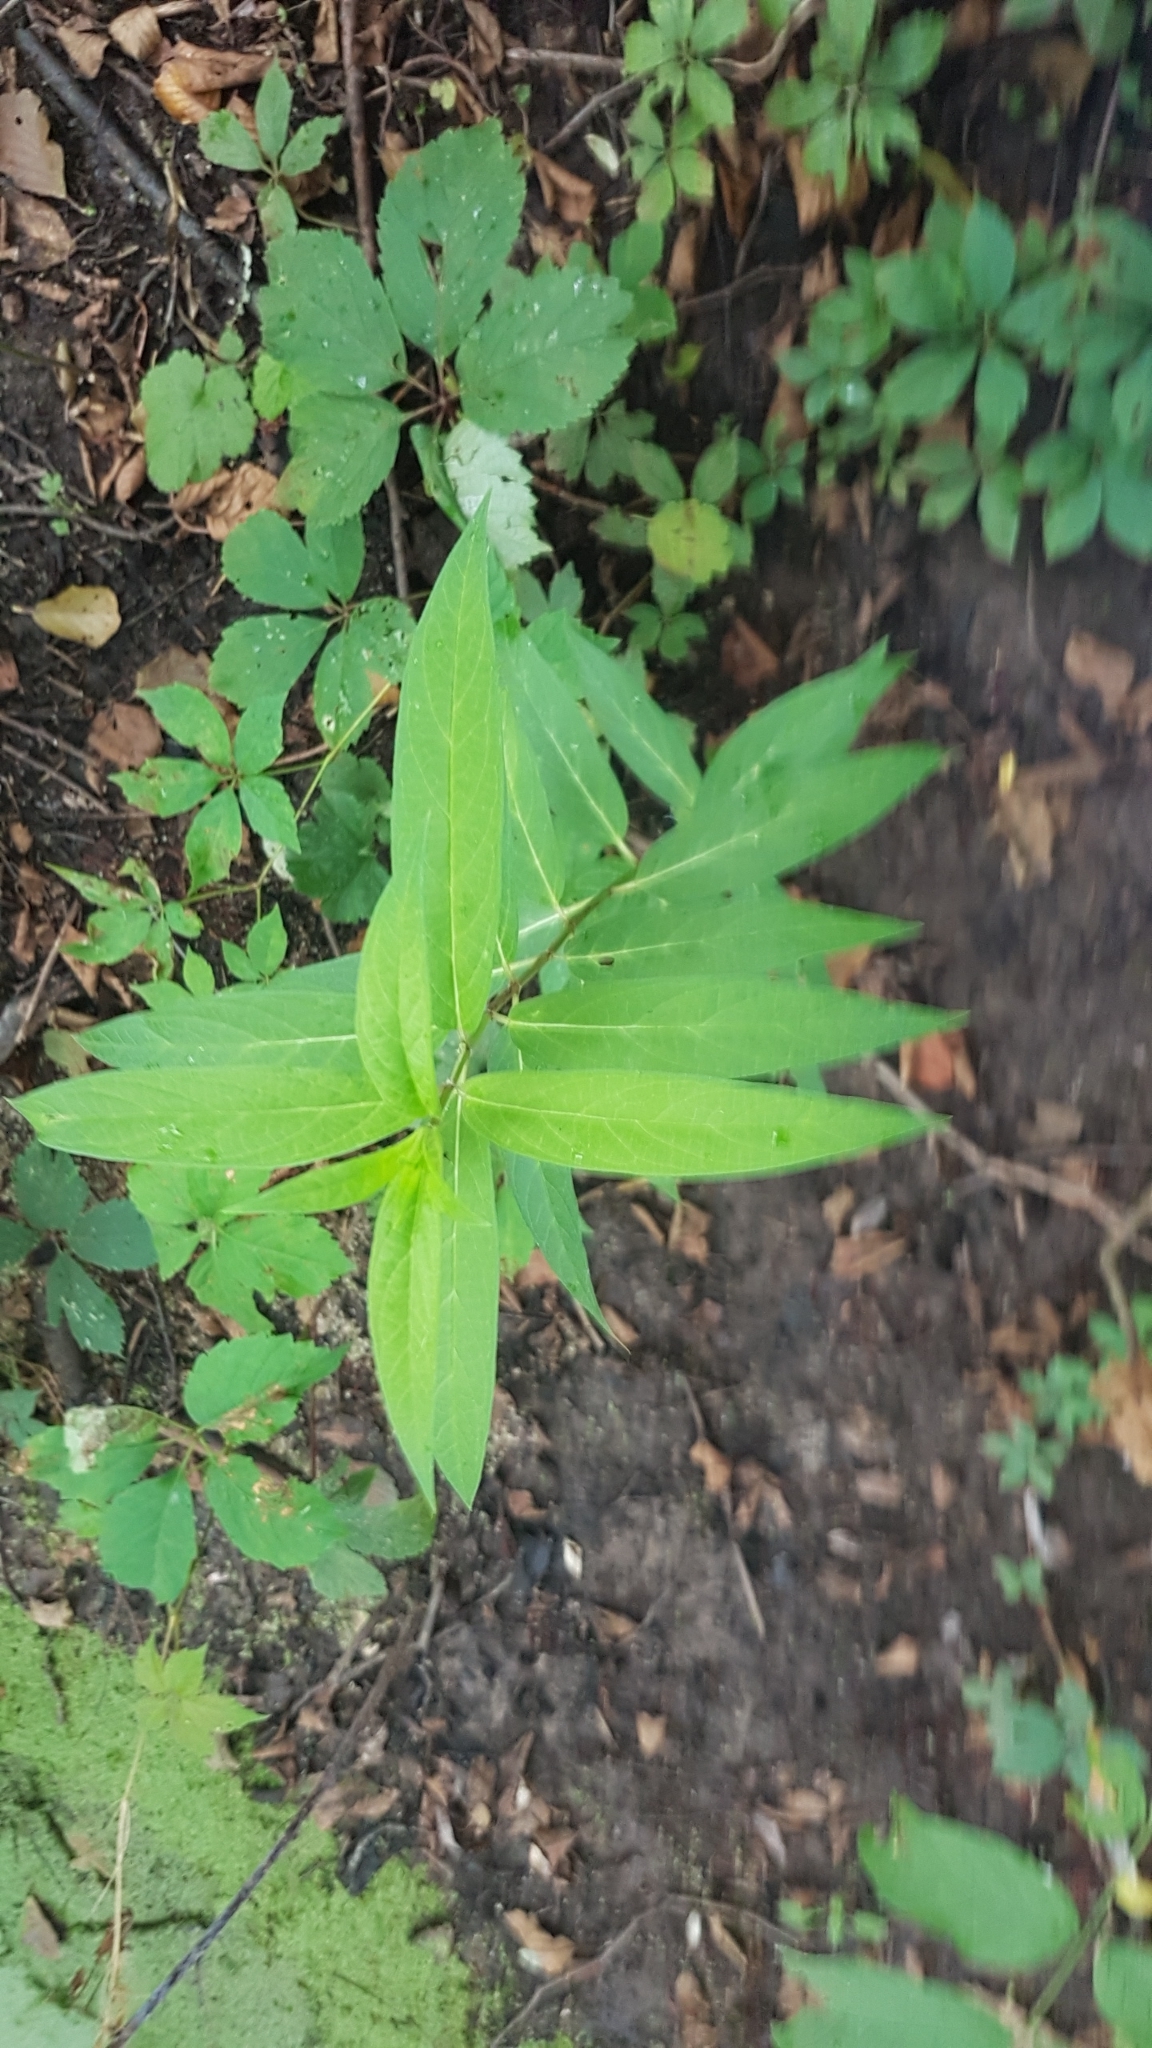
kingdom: Plantae
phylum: Tracheophyta
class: Magnoliopsida
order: Gentianales
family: Apocynaceae
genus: Asclepias
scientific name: Asclepias incarnata
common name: Swamp milkweed
